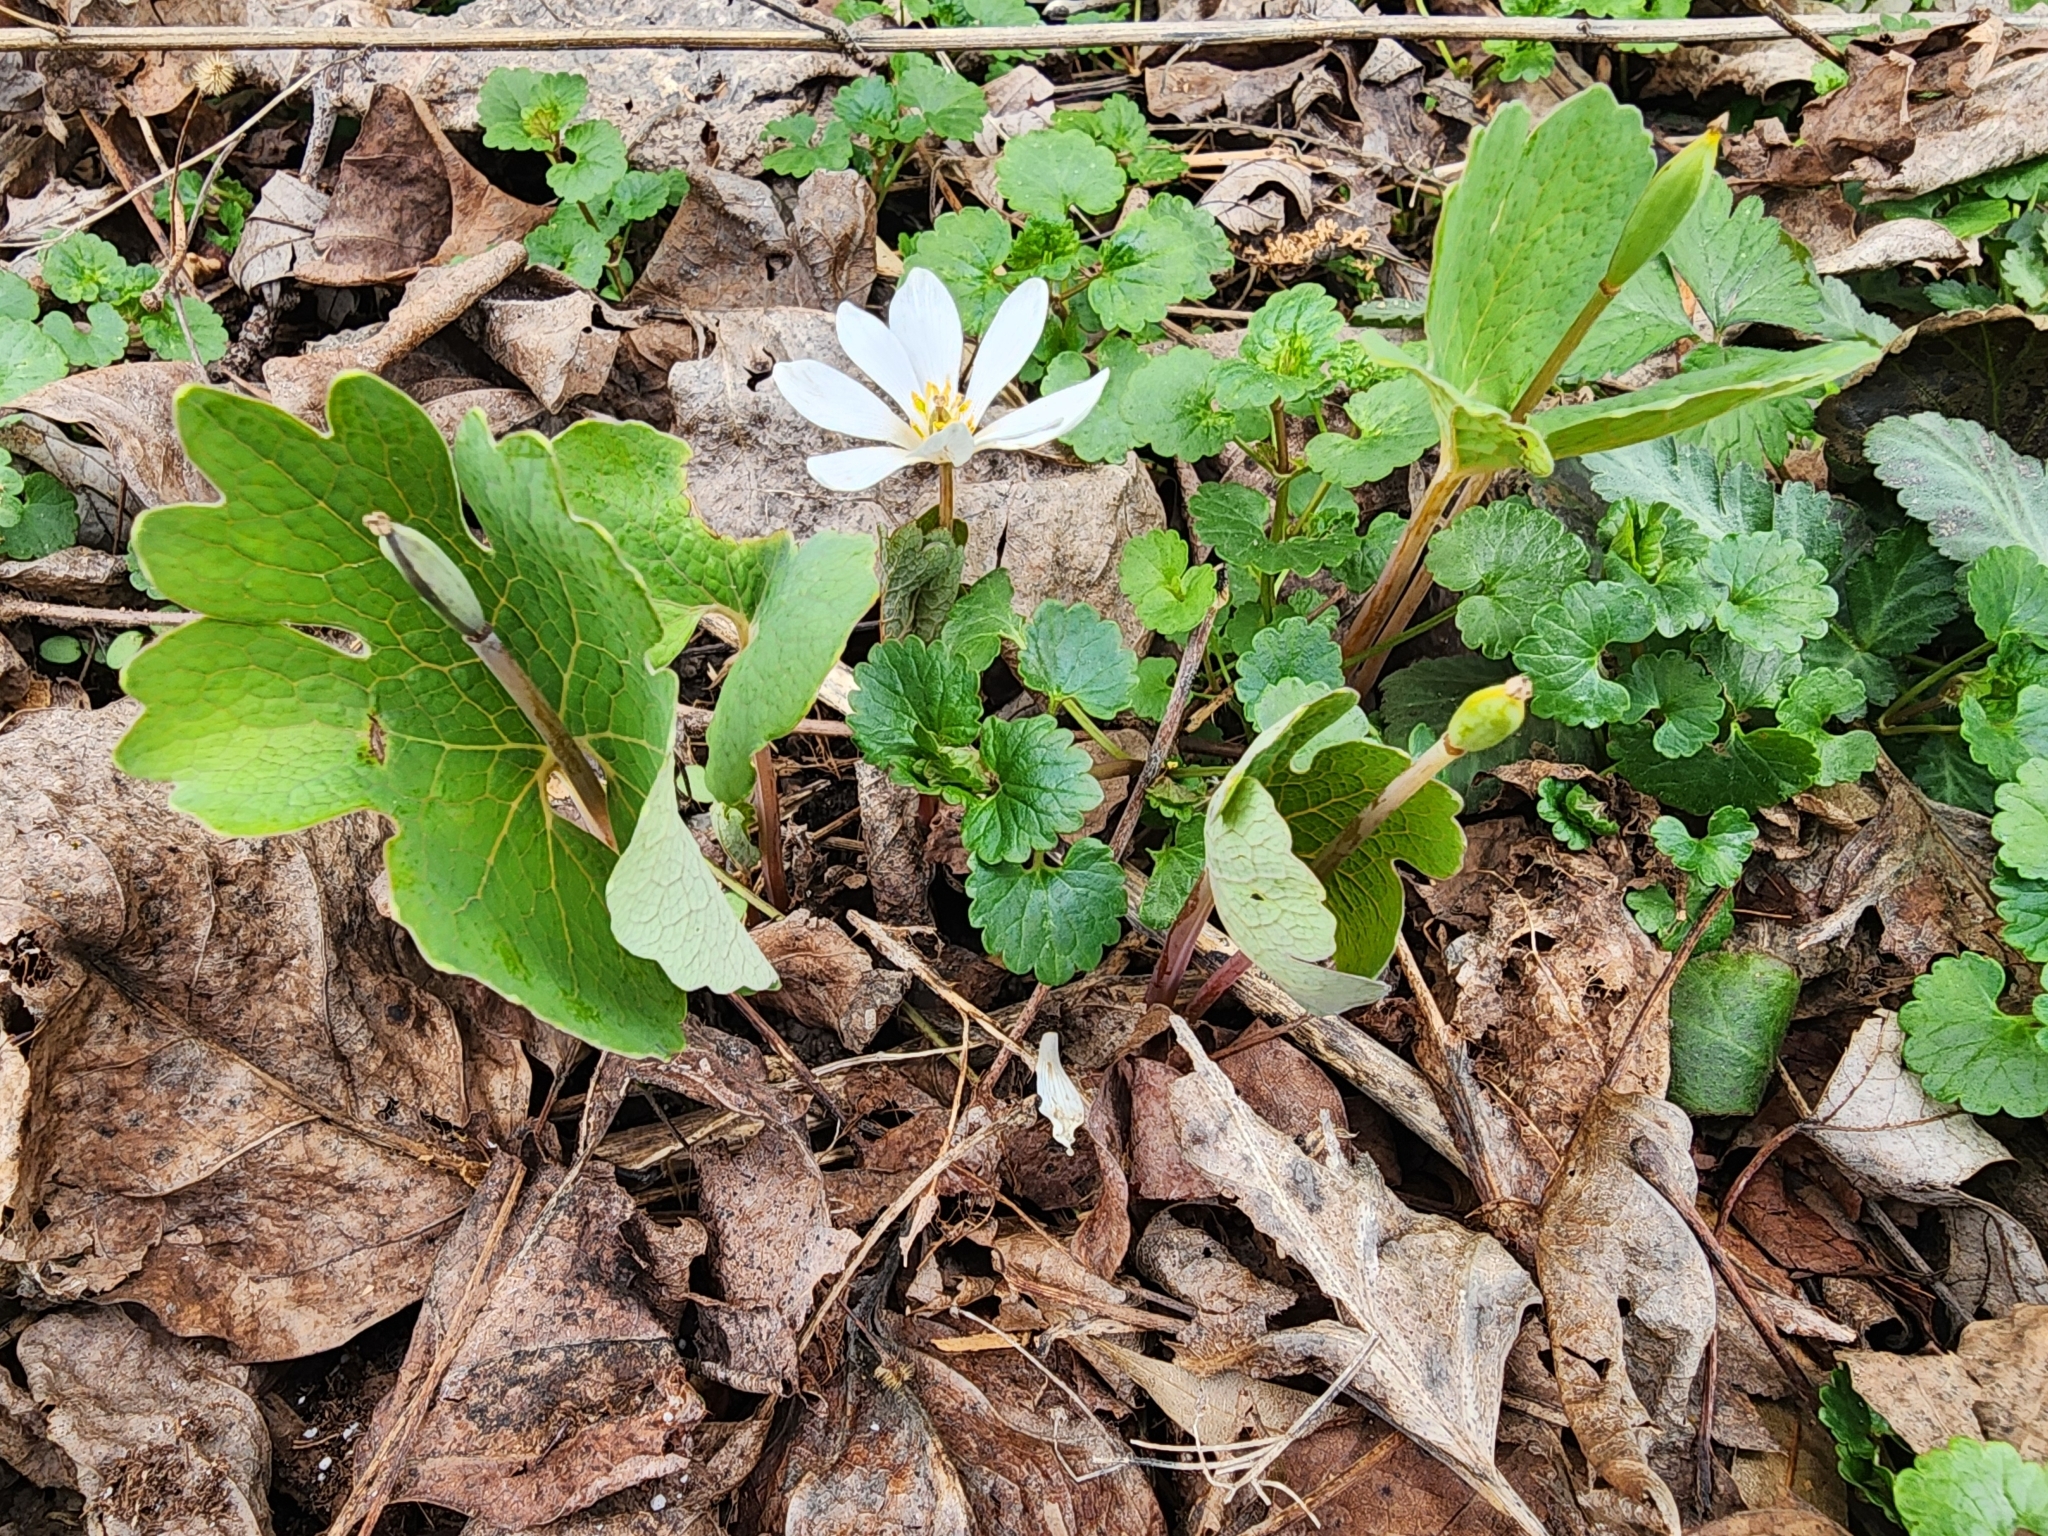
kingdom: Plantae
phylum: Tracheophyta
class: Magnoliopsida
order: Ranunculales
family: Papaveraceae
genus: Sanguinaria
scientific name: Sanguinaria canadensis
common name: Bloodroot
